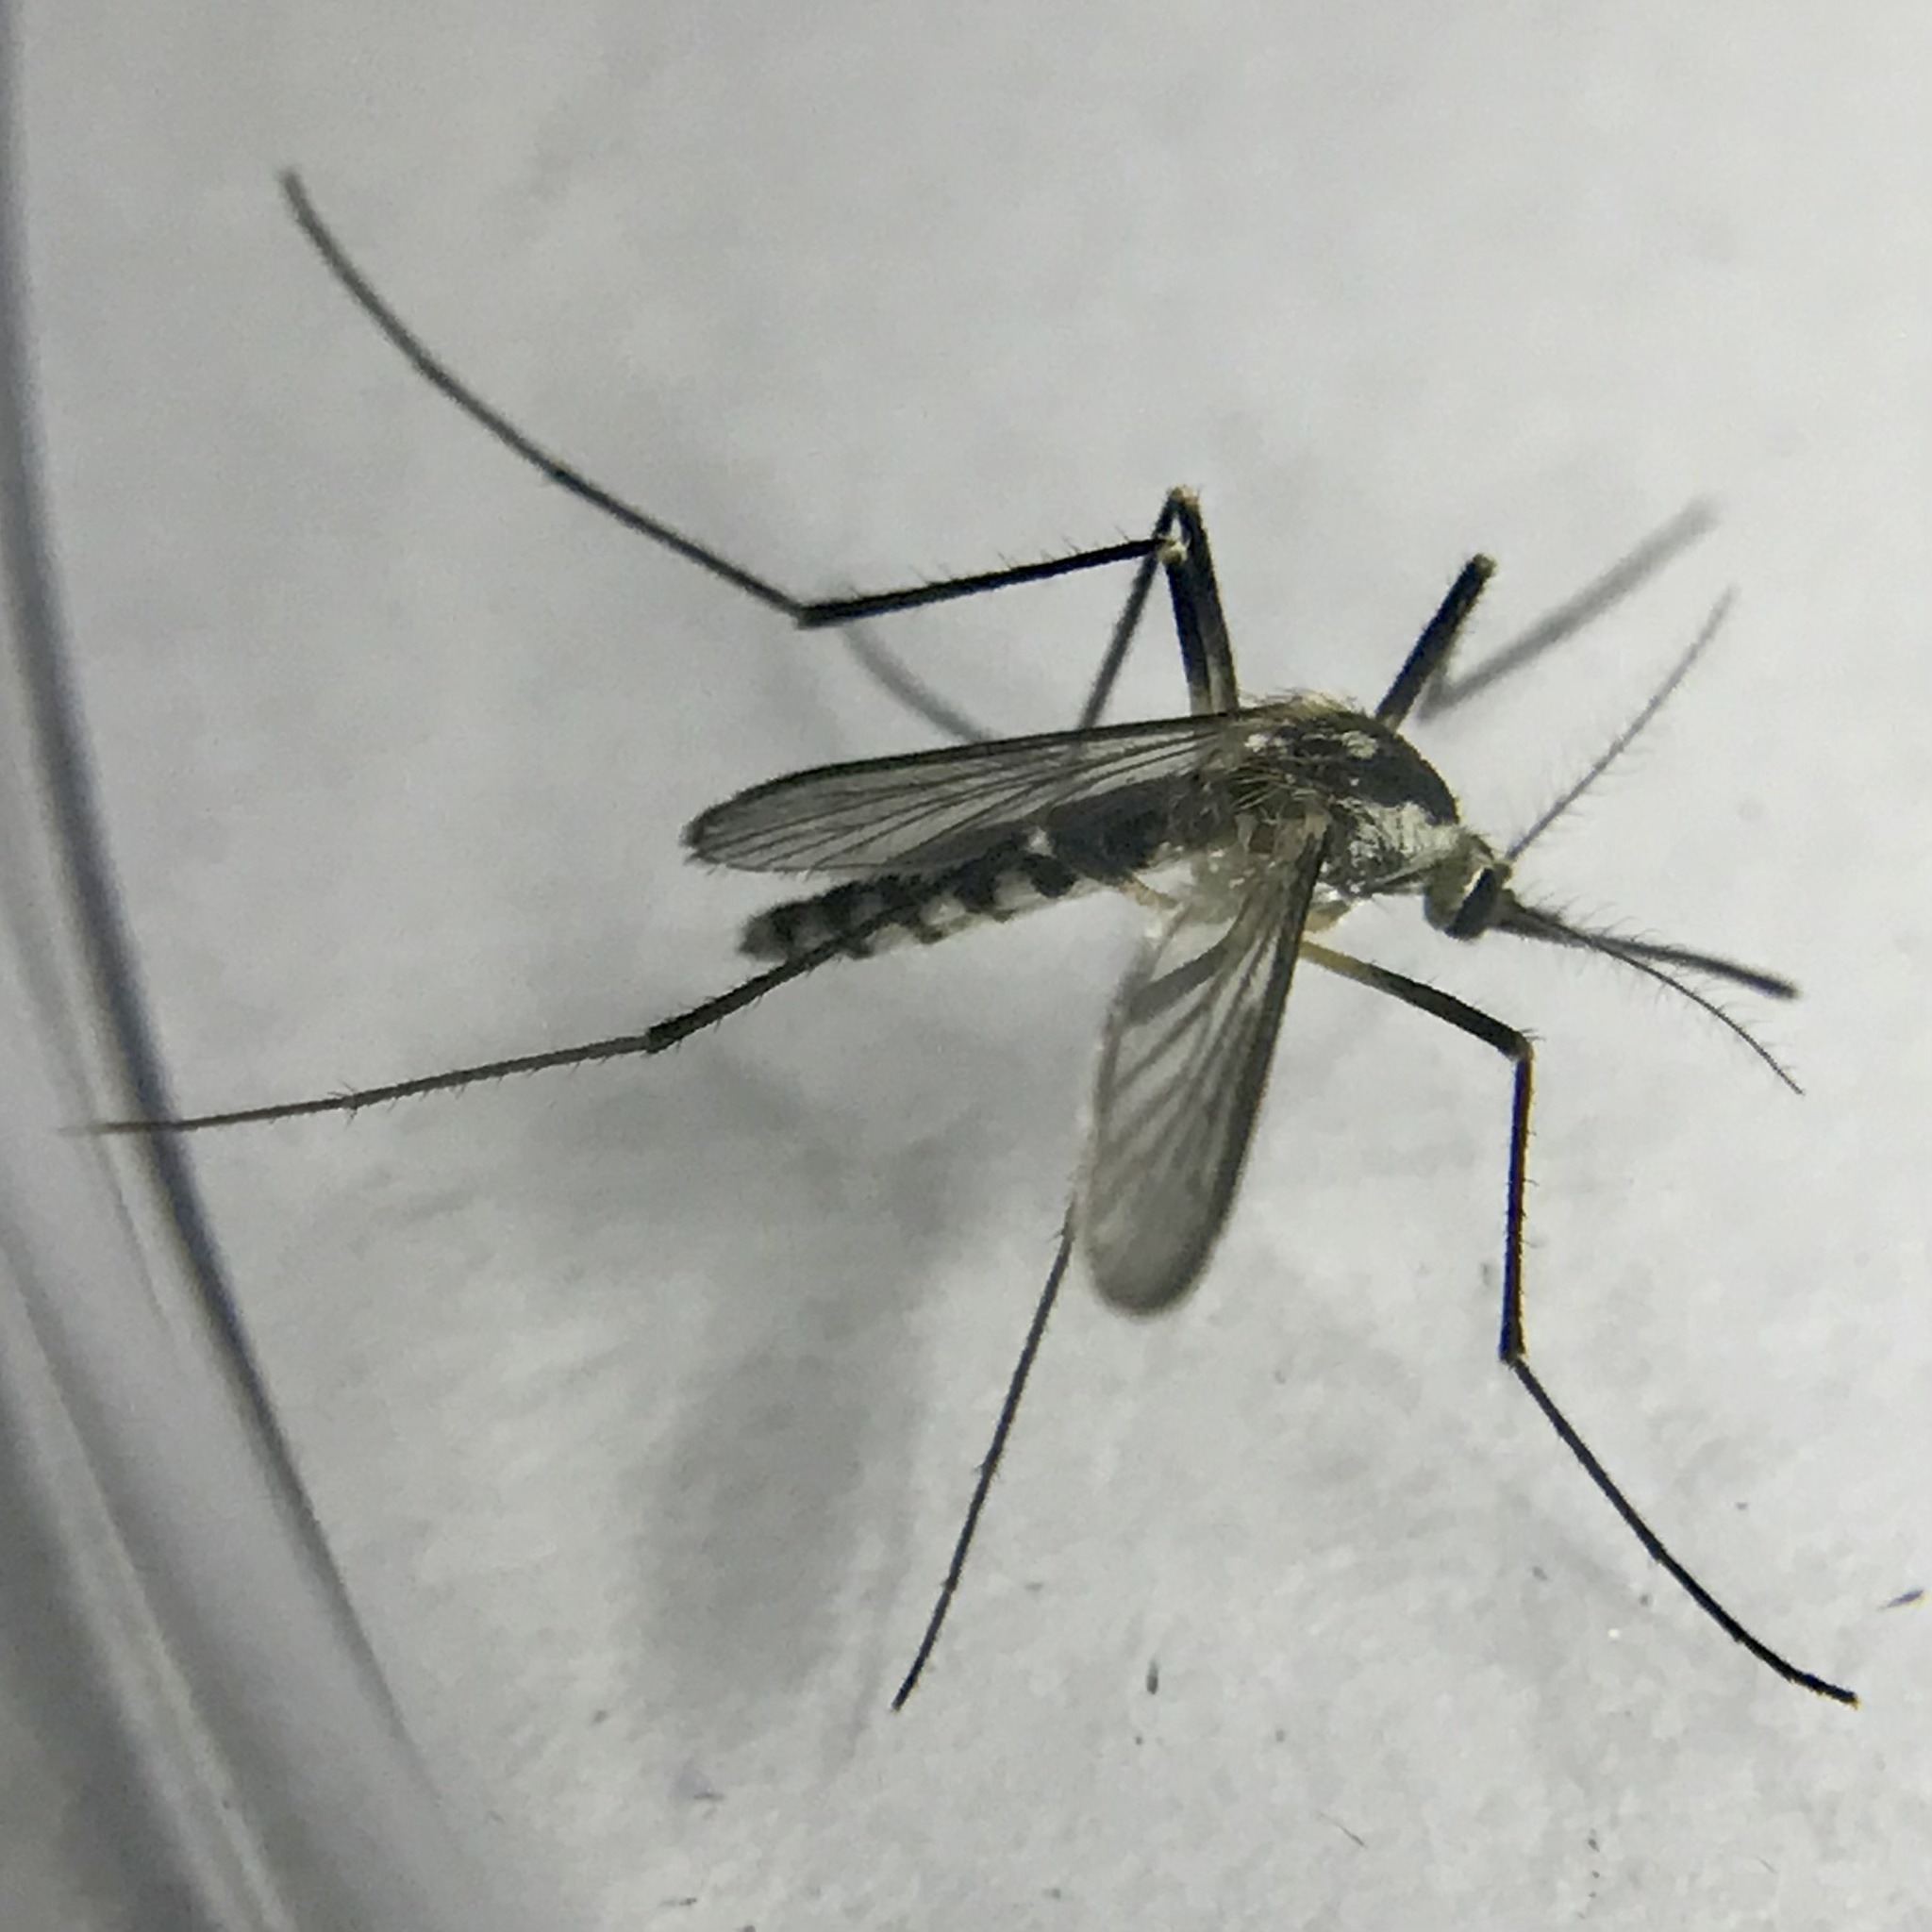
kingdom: Animalia
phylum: Arthropoda
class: Insecta
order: Diptera
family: Culicidae
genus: Aedes
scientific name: Aedes triseriatus
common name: Eastern treehole mosquito
